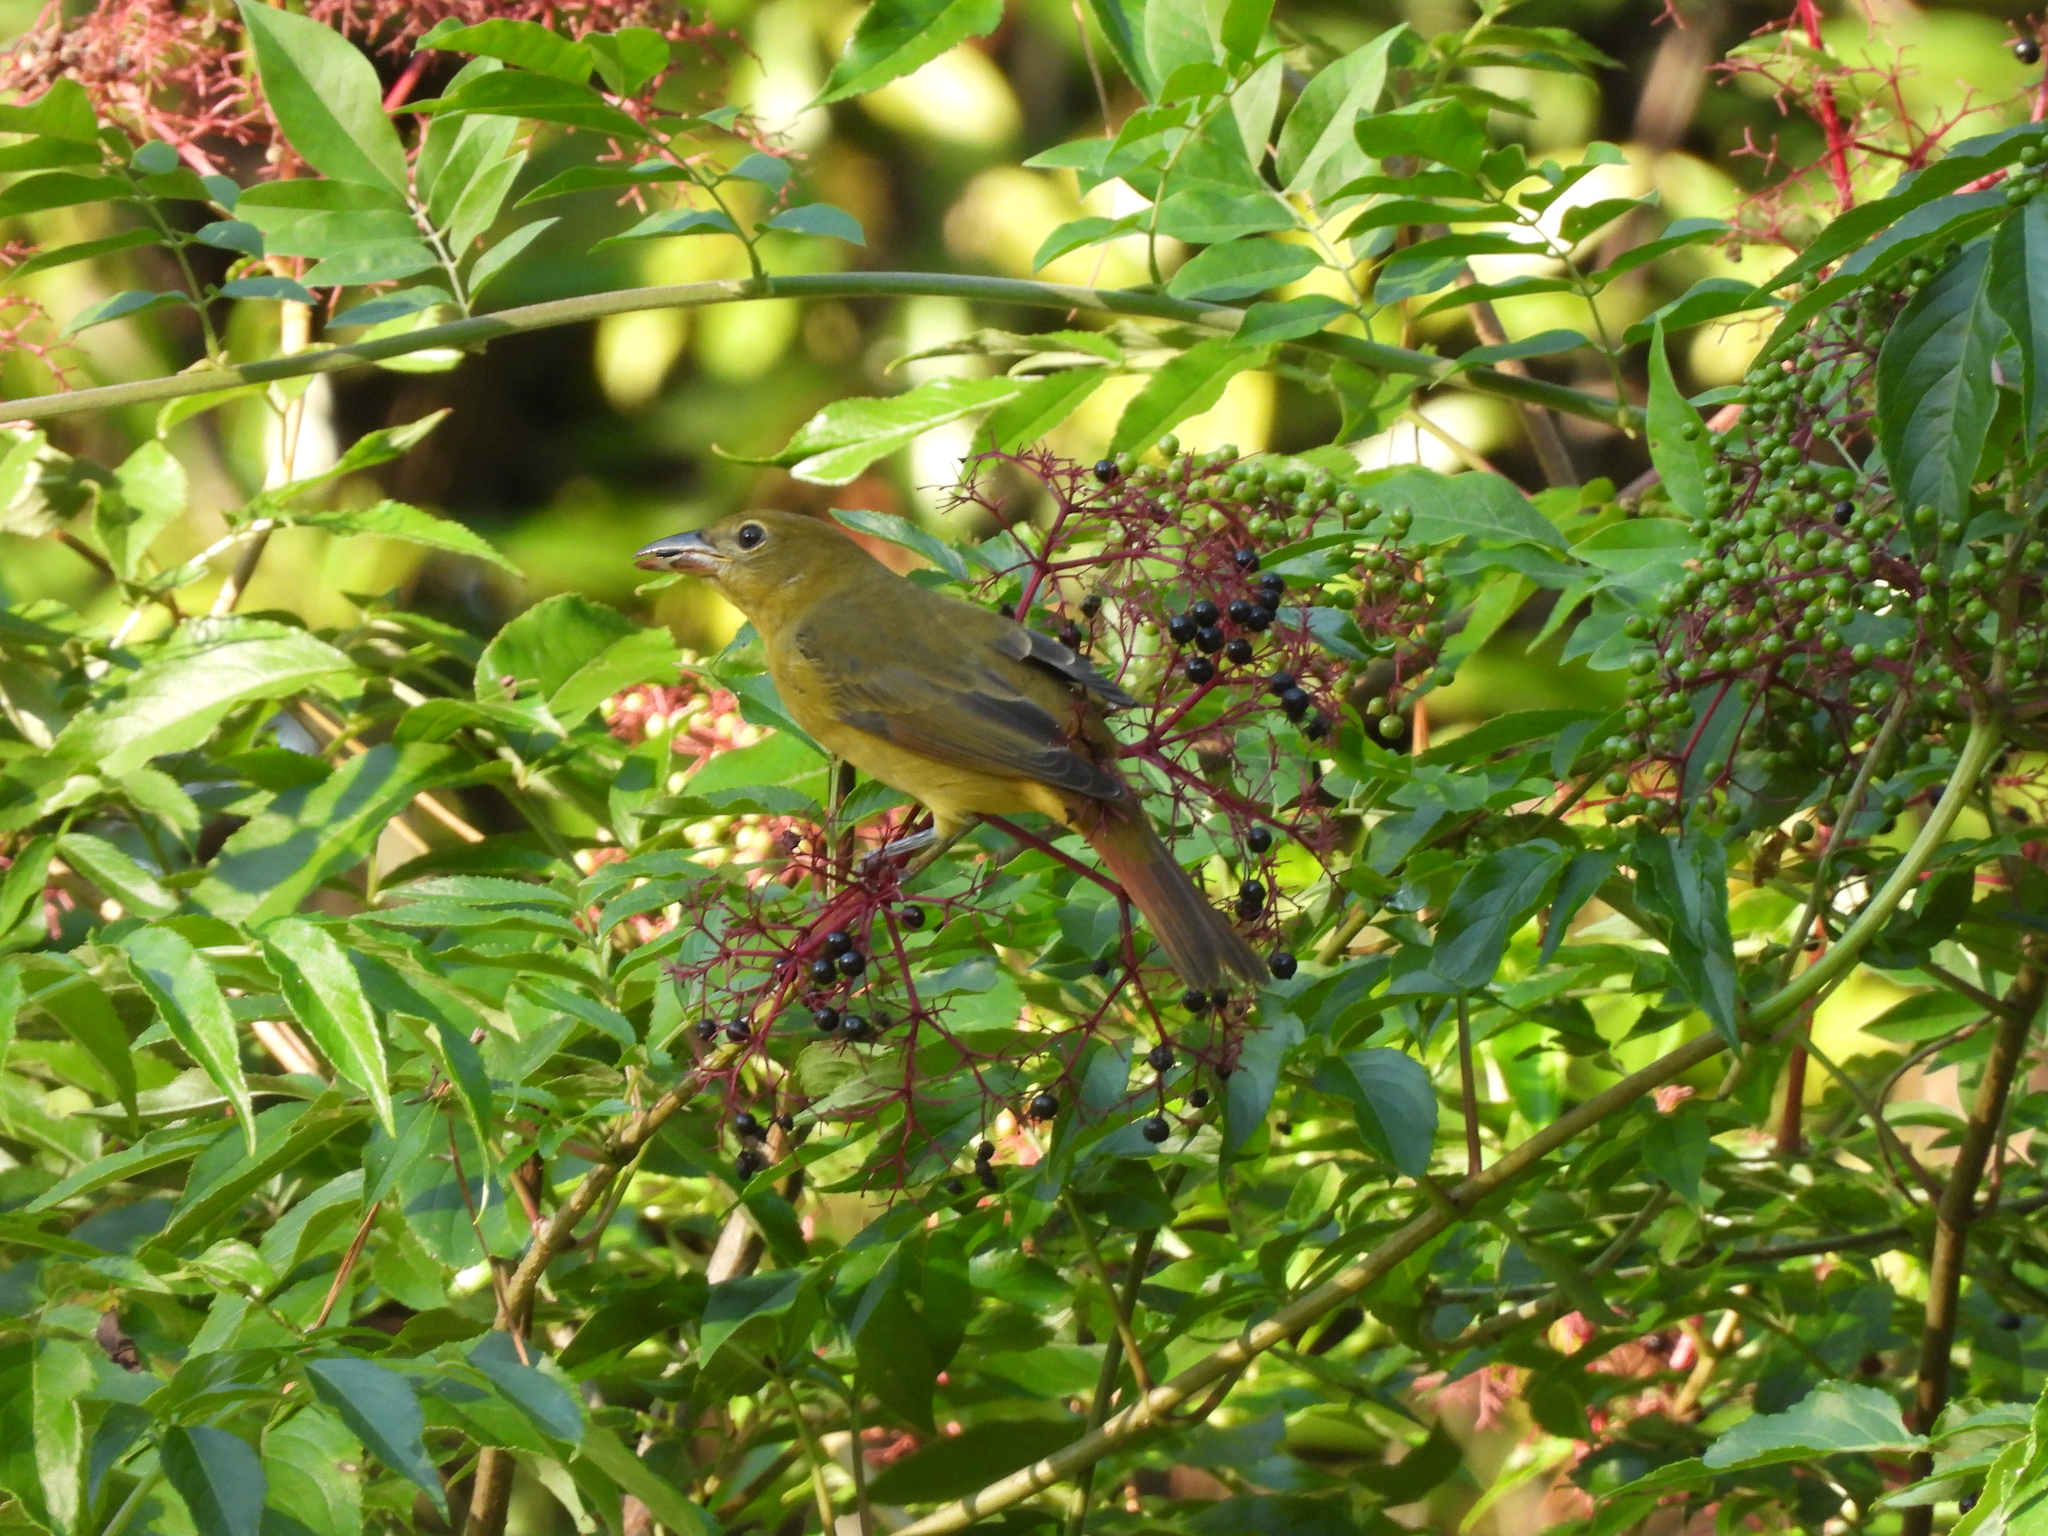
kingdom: Animalia
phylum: Chordata
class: Aves
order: Passeriformes
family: Cardinalidae
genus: Piranga
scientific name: Piranga rubra
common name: Summer tanager
